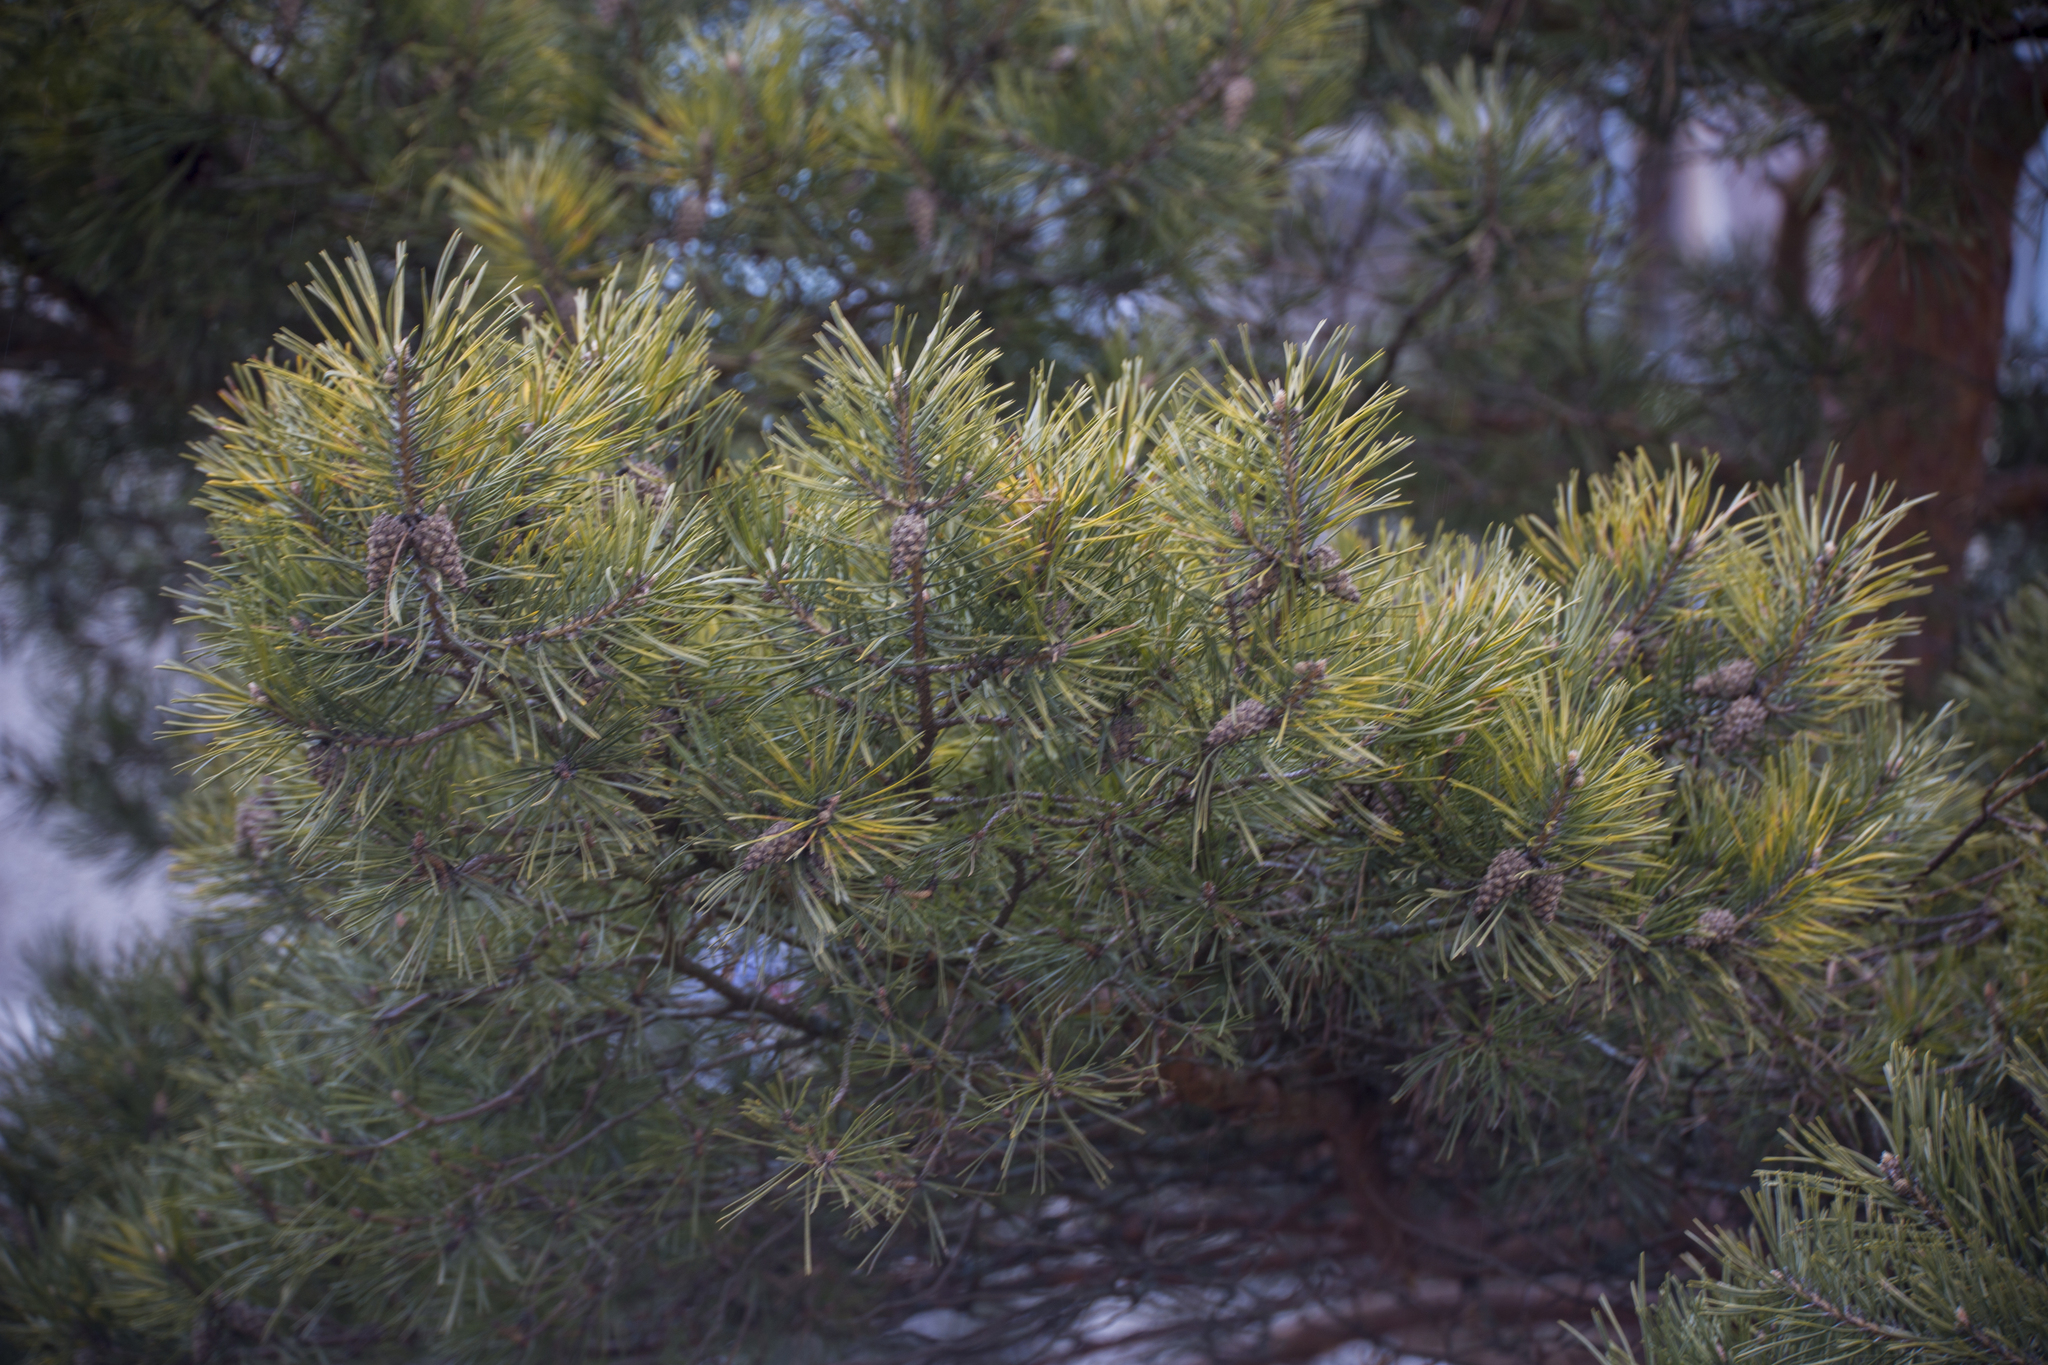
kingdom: Plantae
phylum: Tracheophyta
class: Pinopsida
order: Pinales
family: Pinaceae
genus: Pinus
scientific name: Pinus sylvestris
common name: Scots pine
